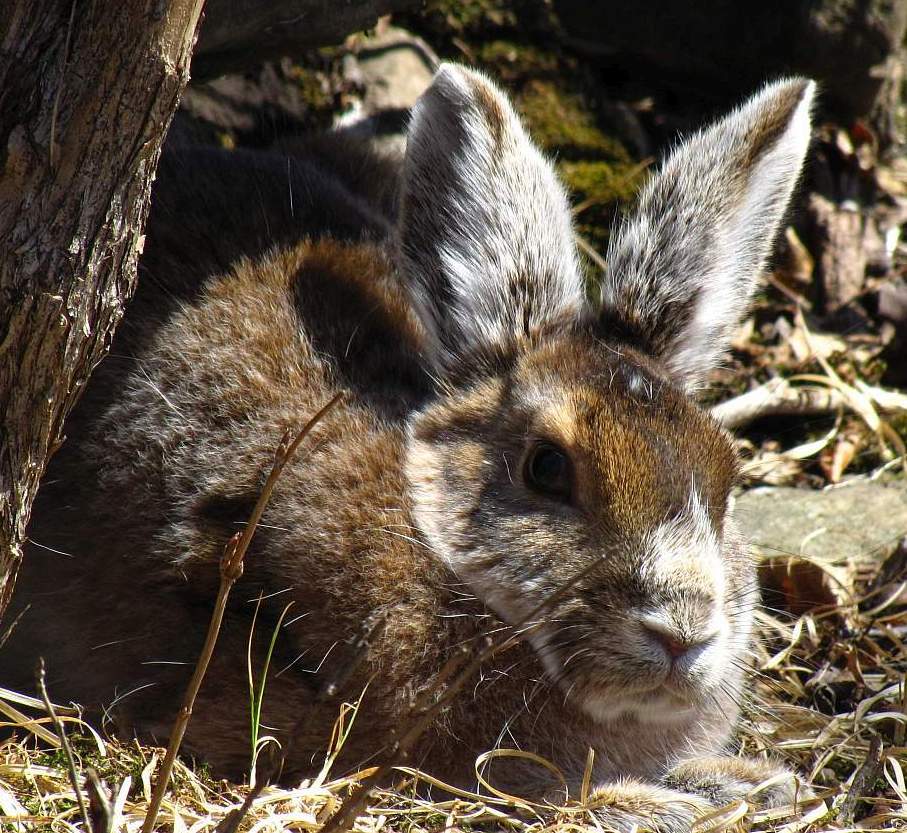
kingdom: Animalia
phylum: Chordata
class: Mammalia
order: Lagomorpha
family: Leporidae
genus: Lepus
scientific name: Lepus americanus
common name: Snowshoe hare
